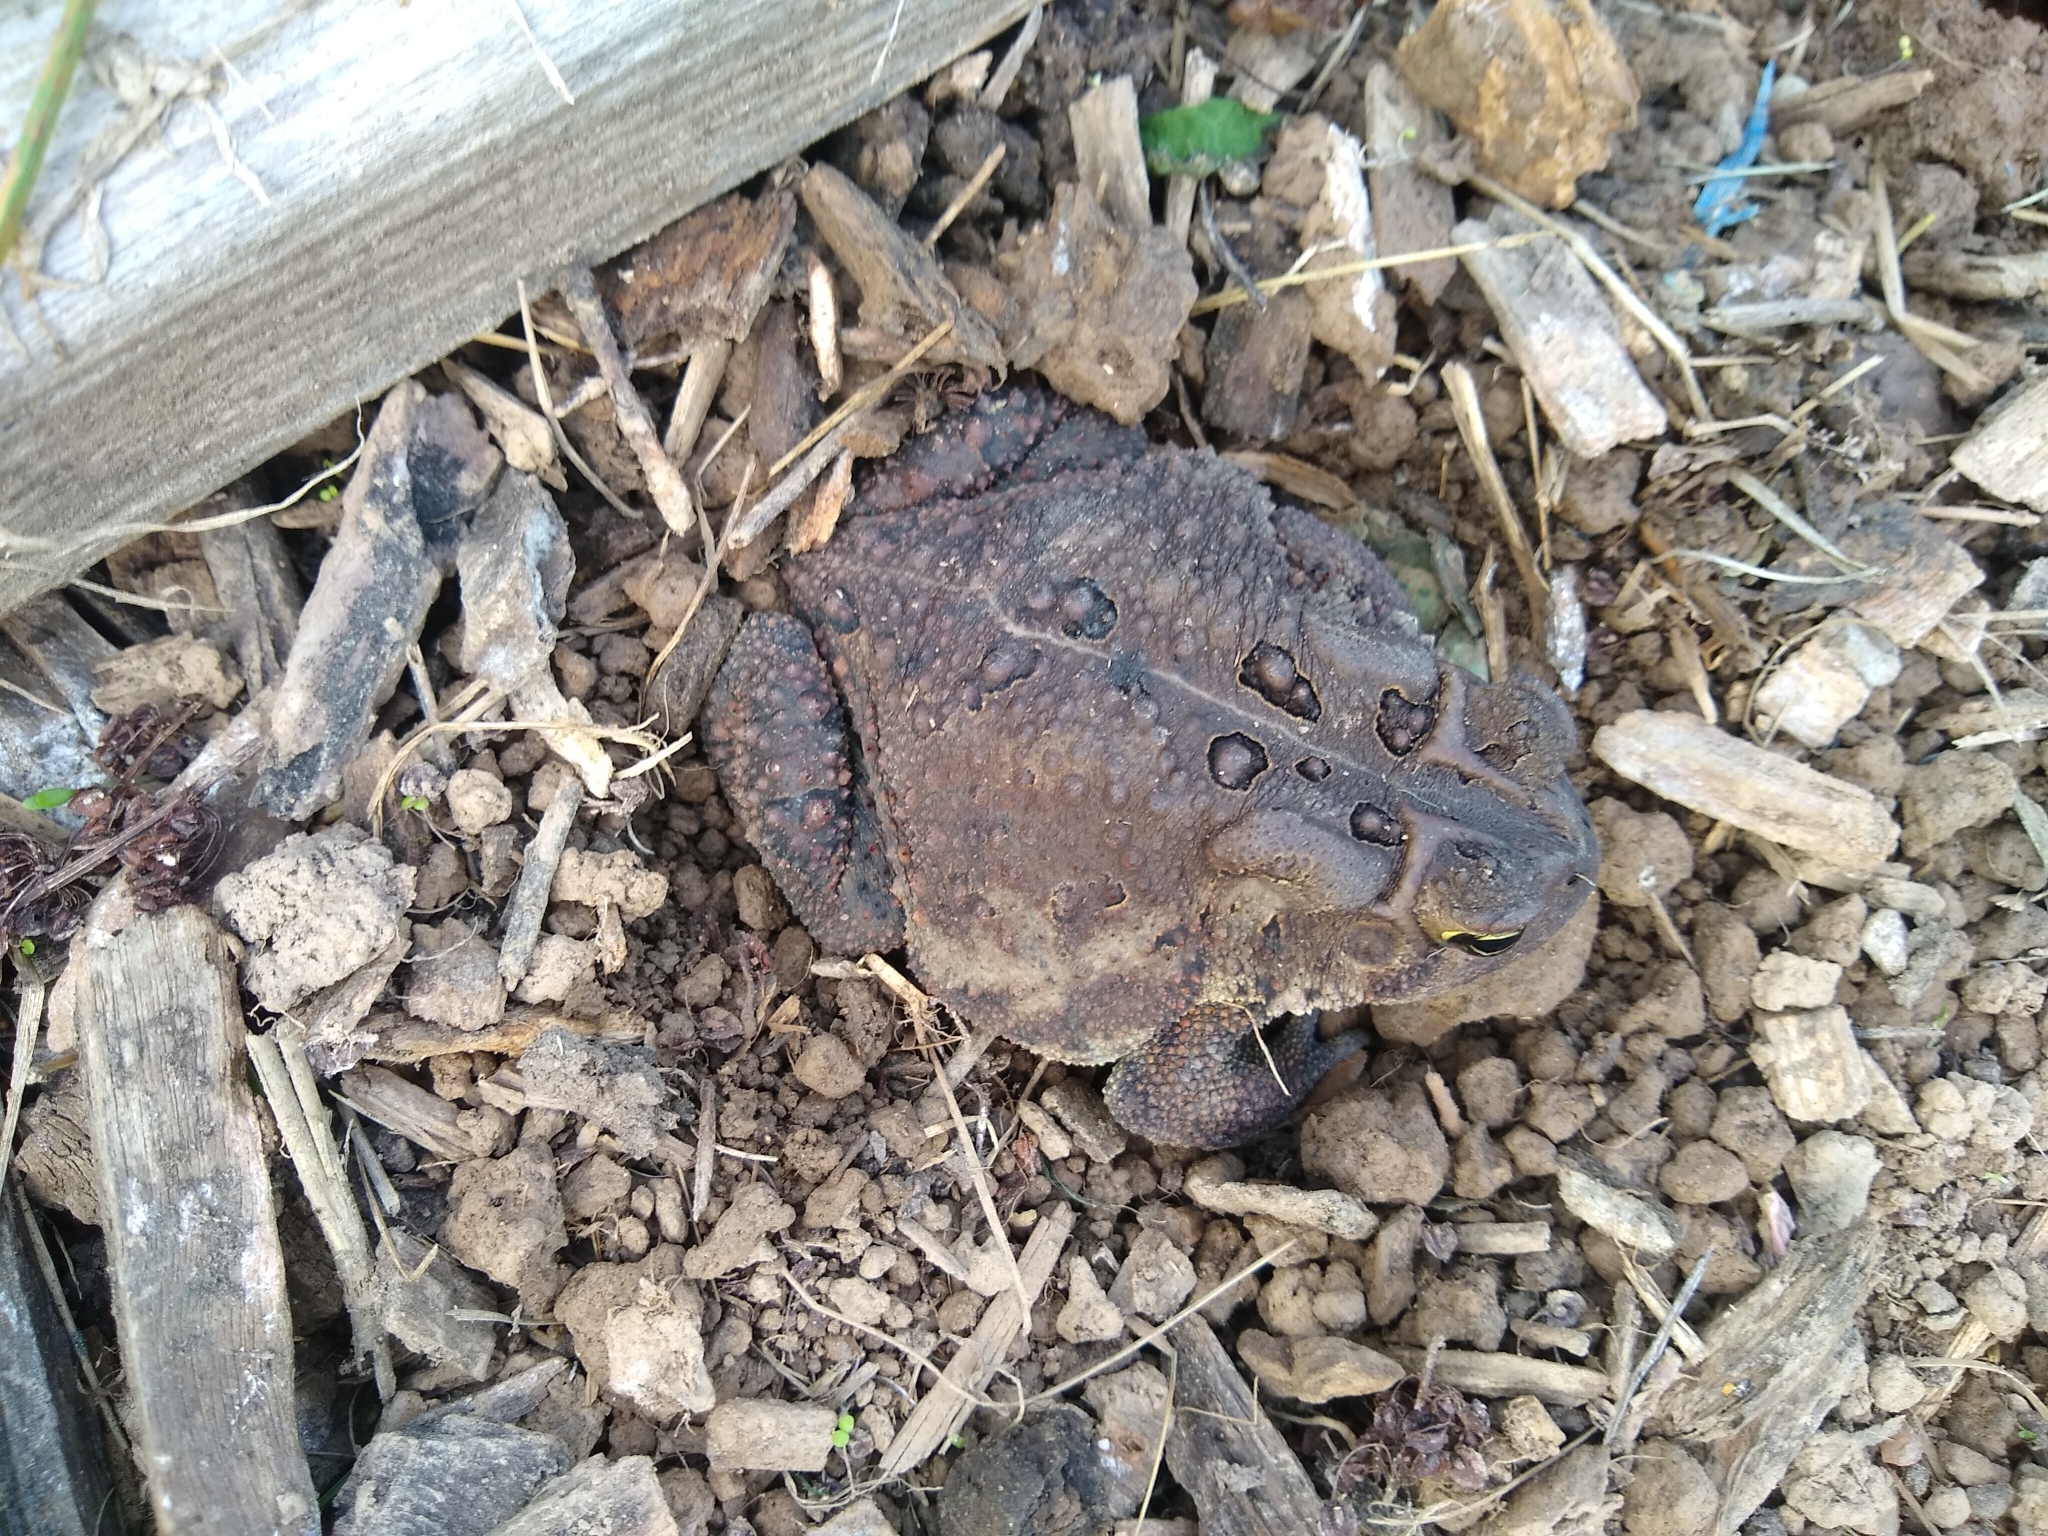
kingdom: Animalia
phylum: Chordata
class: Amphibia
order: Anura
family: Bufonidae
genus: Anaxyrus
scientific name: Anaxyrus americanus
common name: American toad
